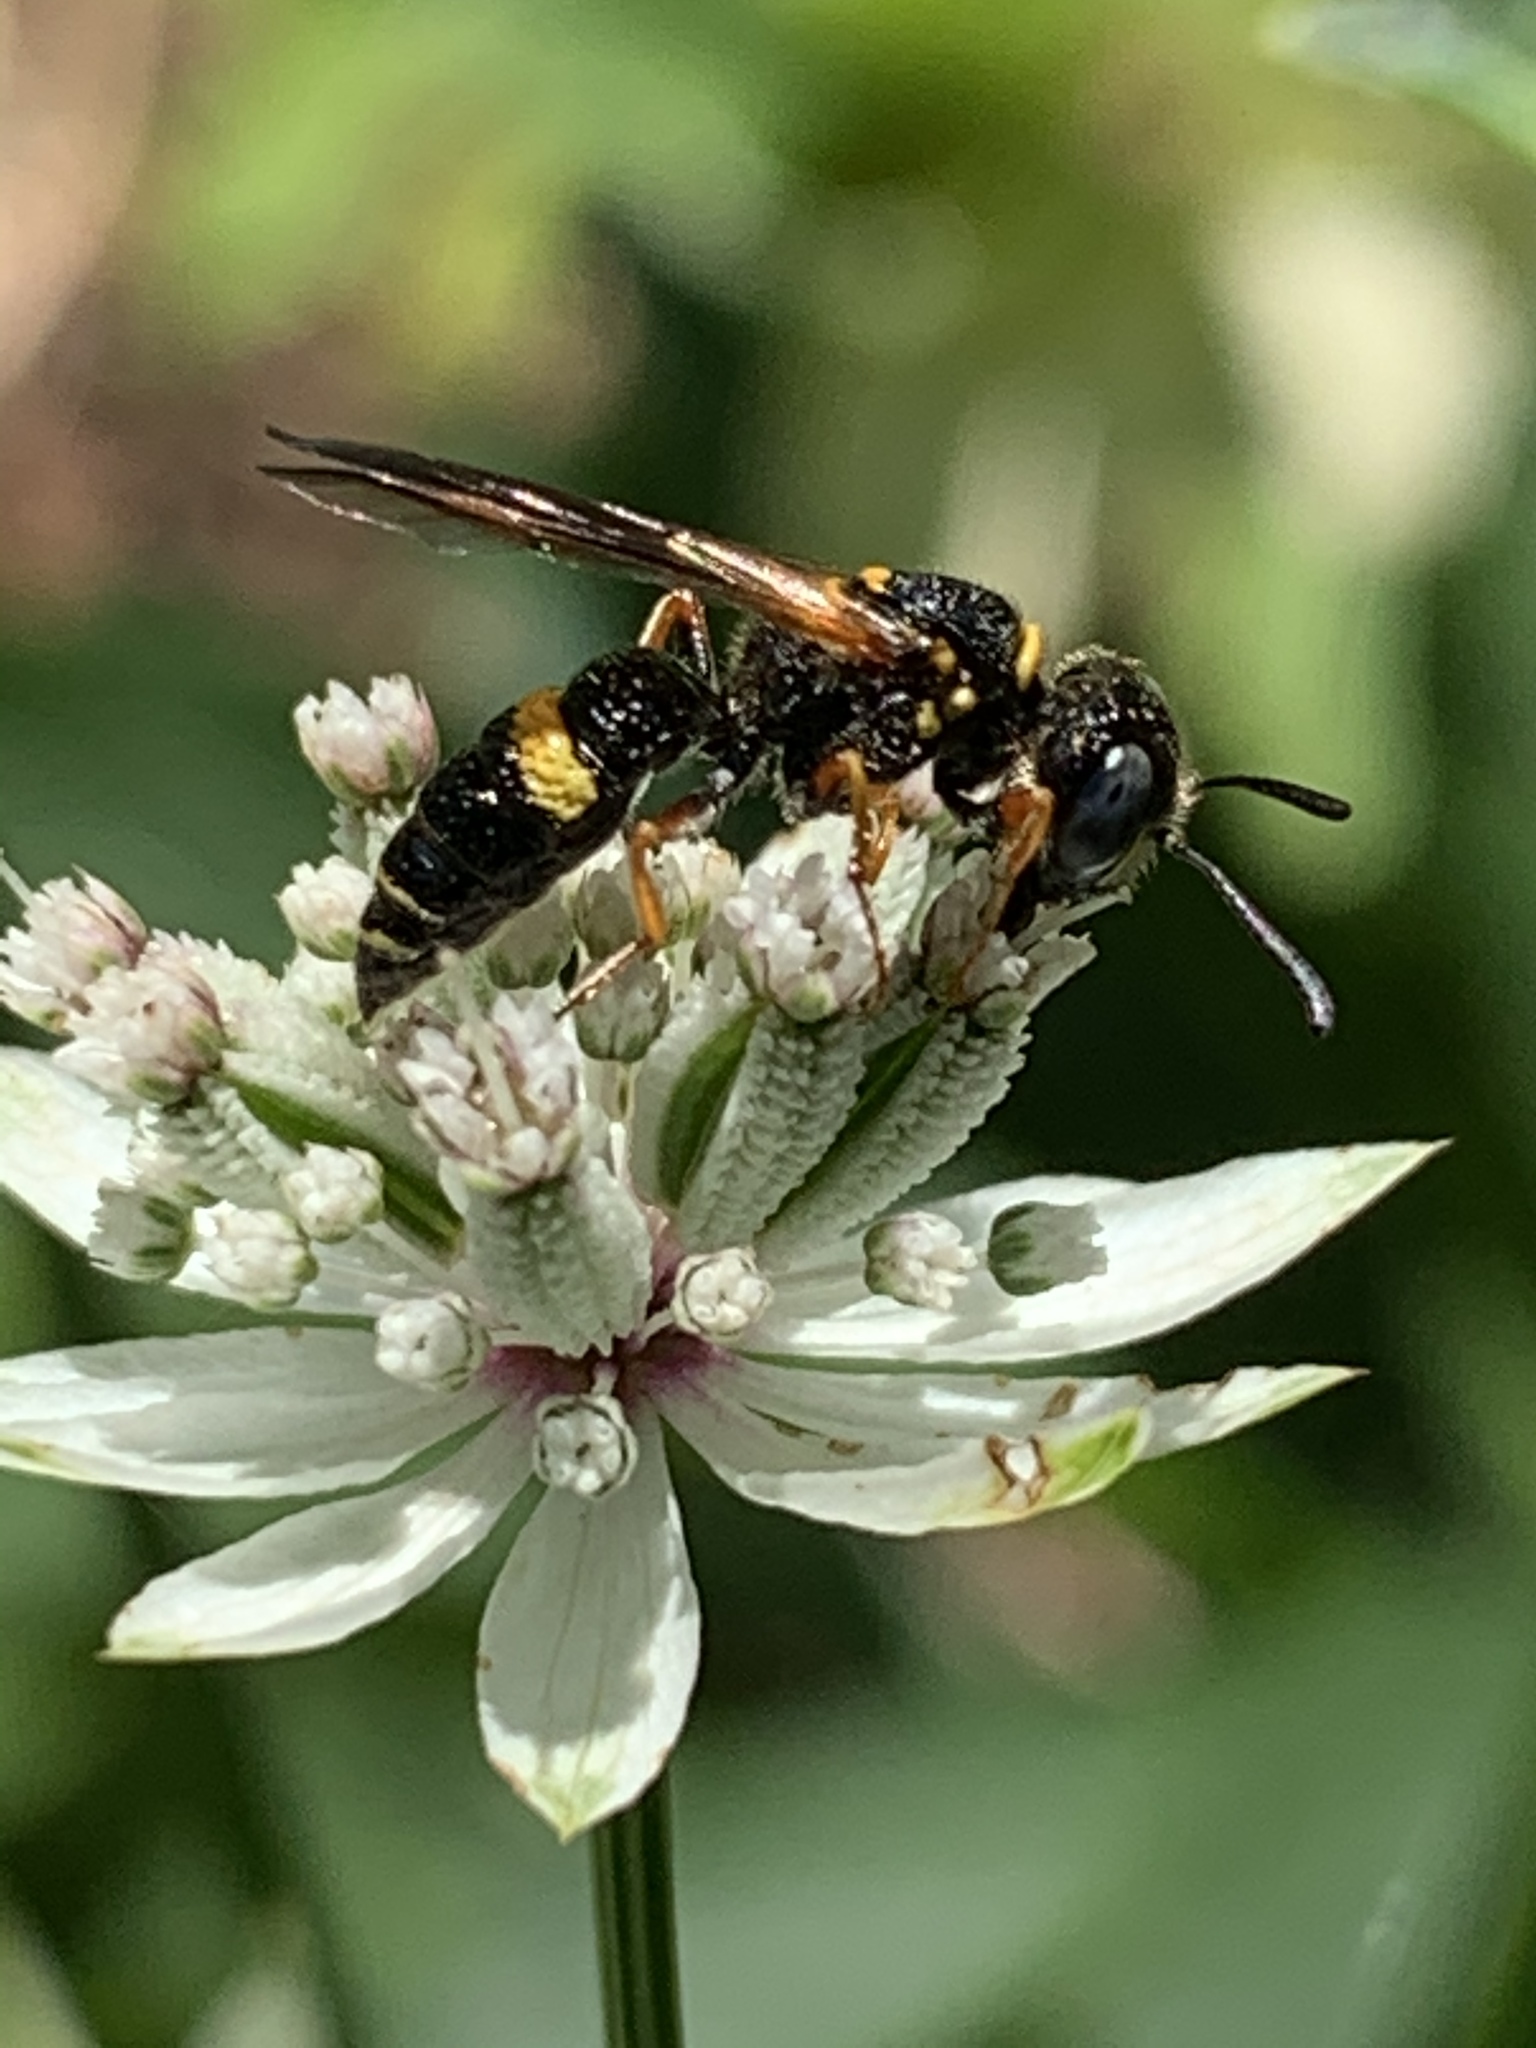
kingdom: Animalia
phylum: Arthropoda
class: Insecta
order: Hymenoptera
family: Crabronidae
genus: Philanthus
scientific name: Philanthus gibbosus
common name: Humped beewolf
